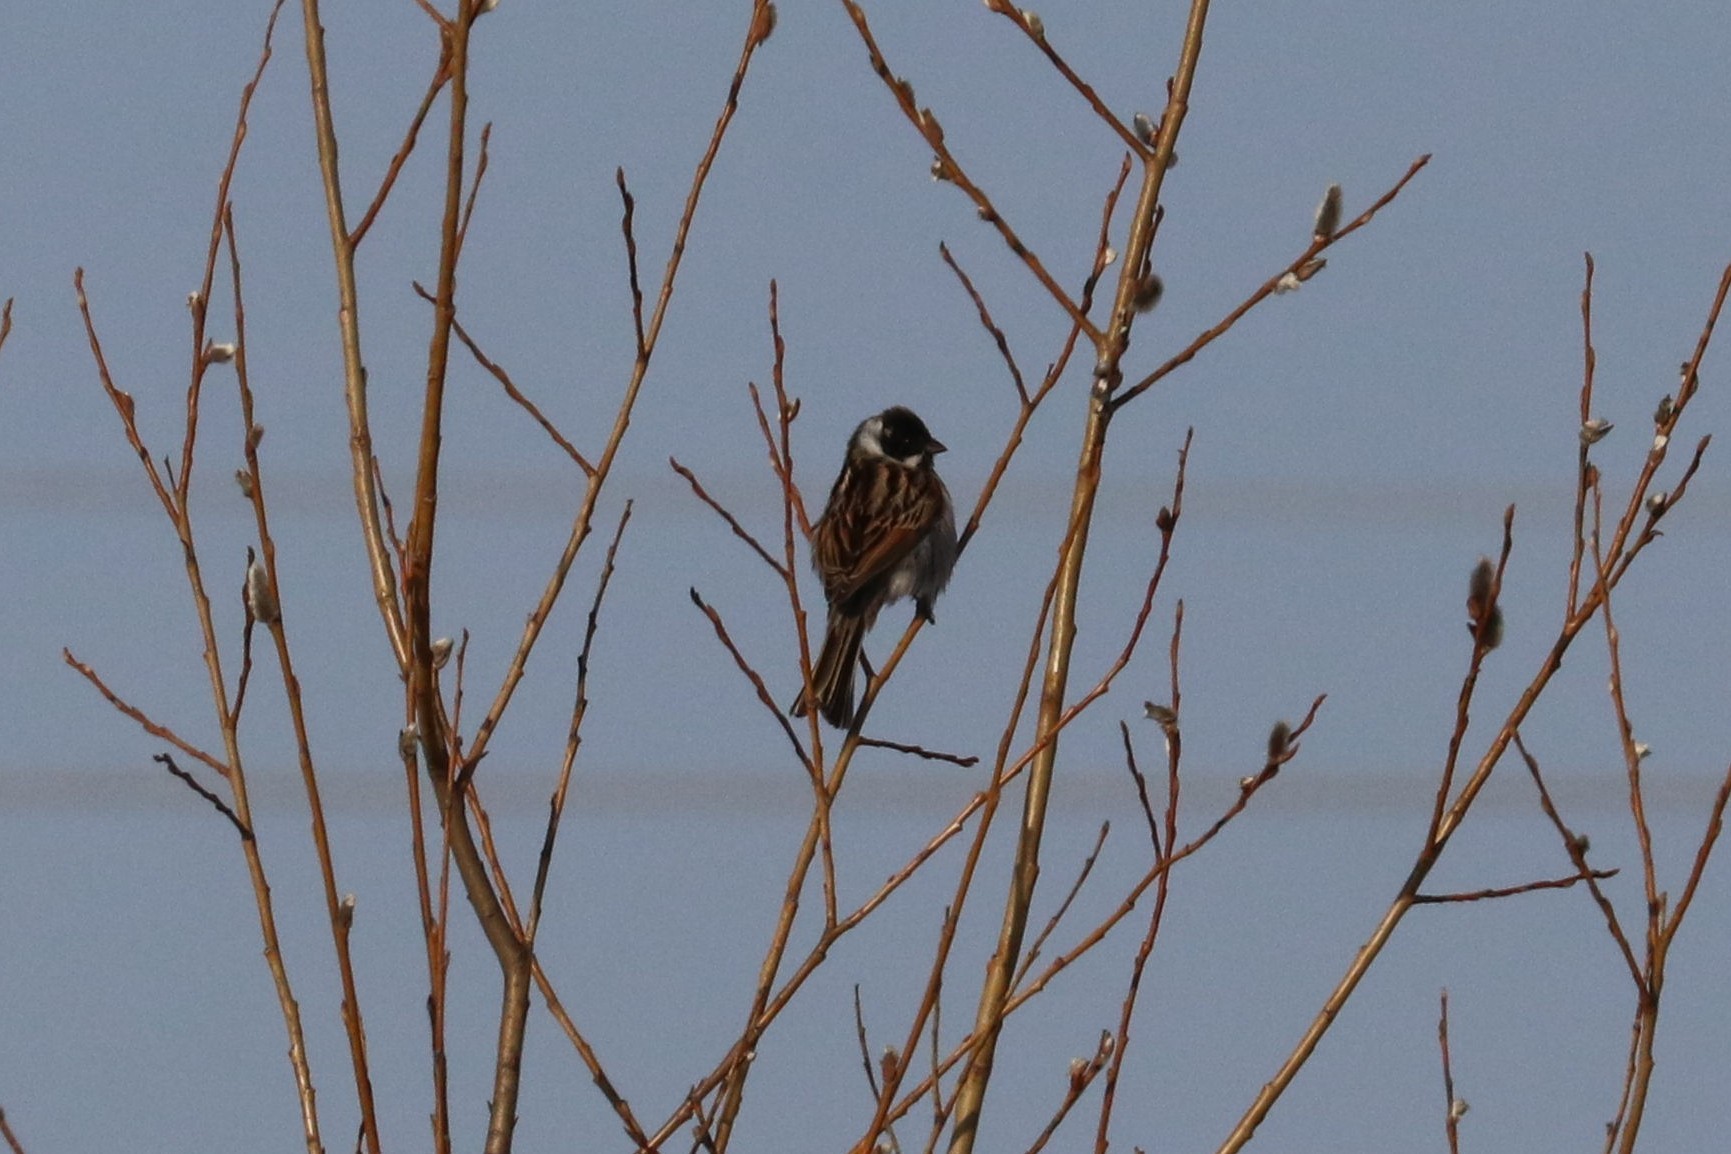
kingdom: Animalia
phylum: Chordata
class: Aves
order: Passeriformes
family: Emberizidae
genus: Emberiza
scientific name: Emberiza schoeniclus
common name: Reed bunting
